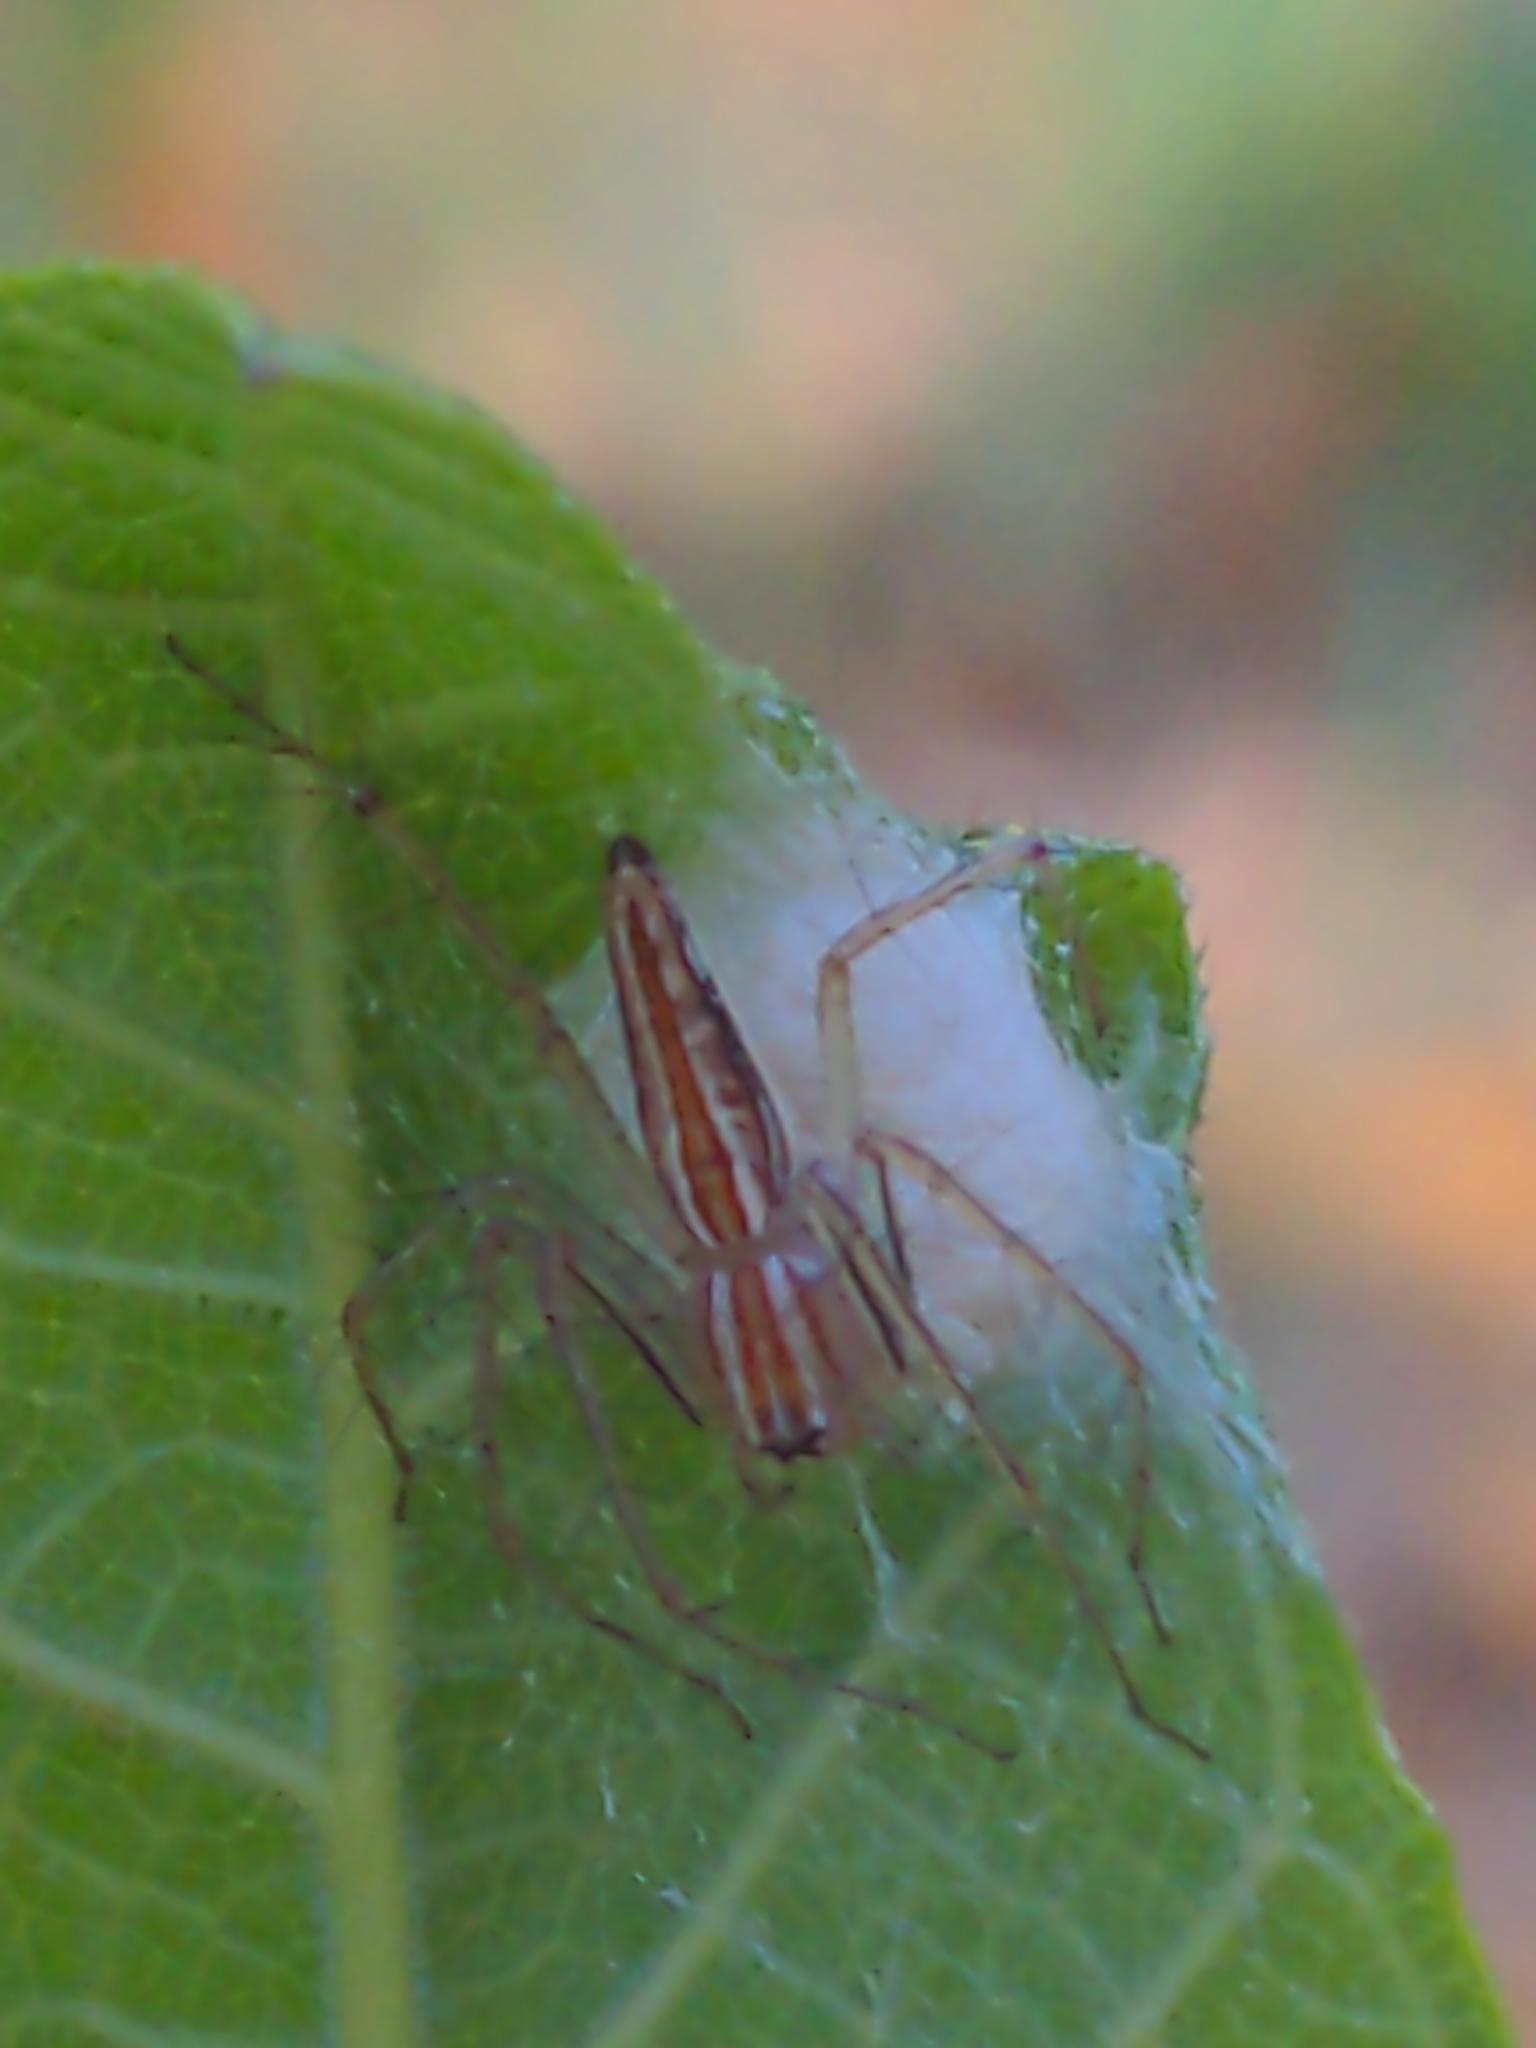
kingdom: Animalia
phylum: Arthropoda
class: Arachnida
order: Araneae
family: Oxyopidae
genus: Oxyopes
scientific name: Oxyopes macilentus
